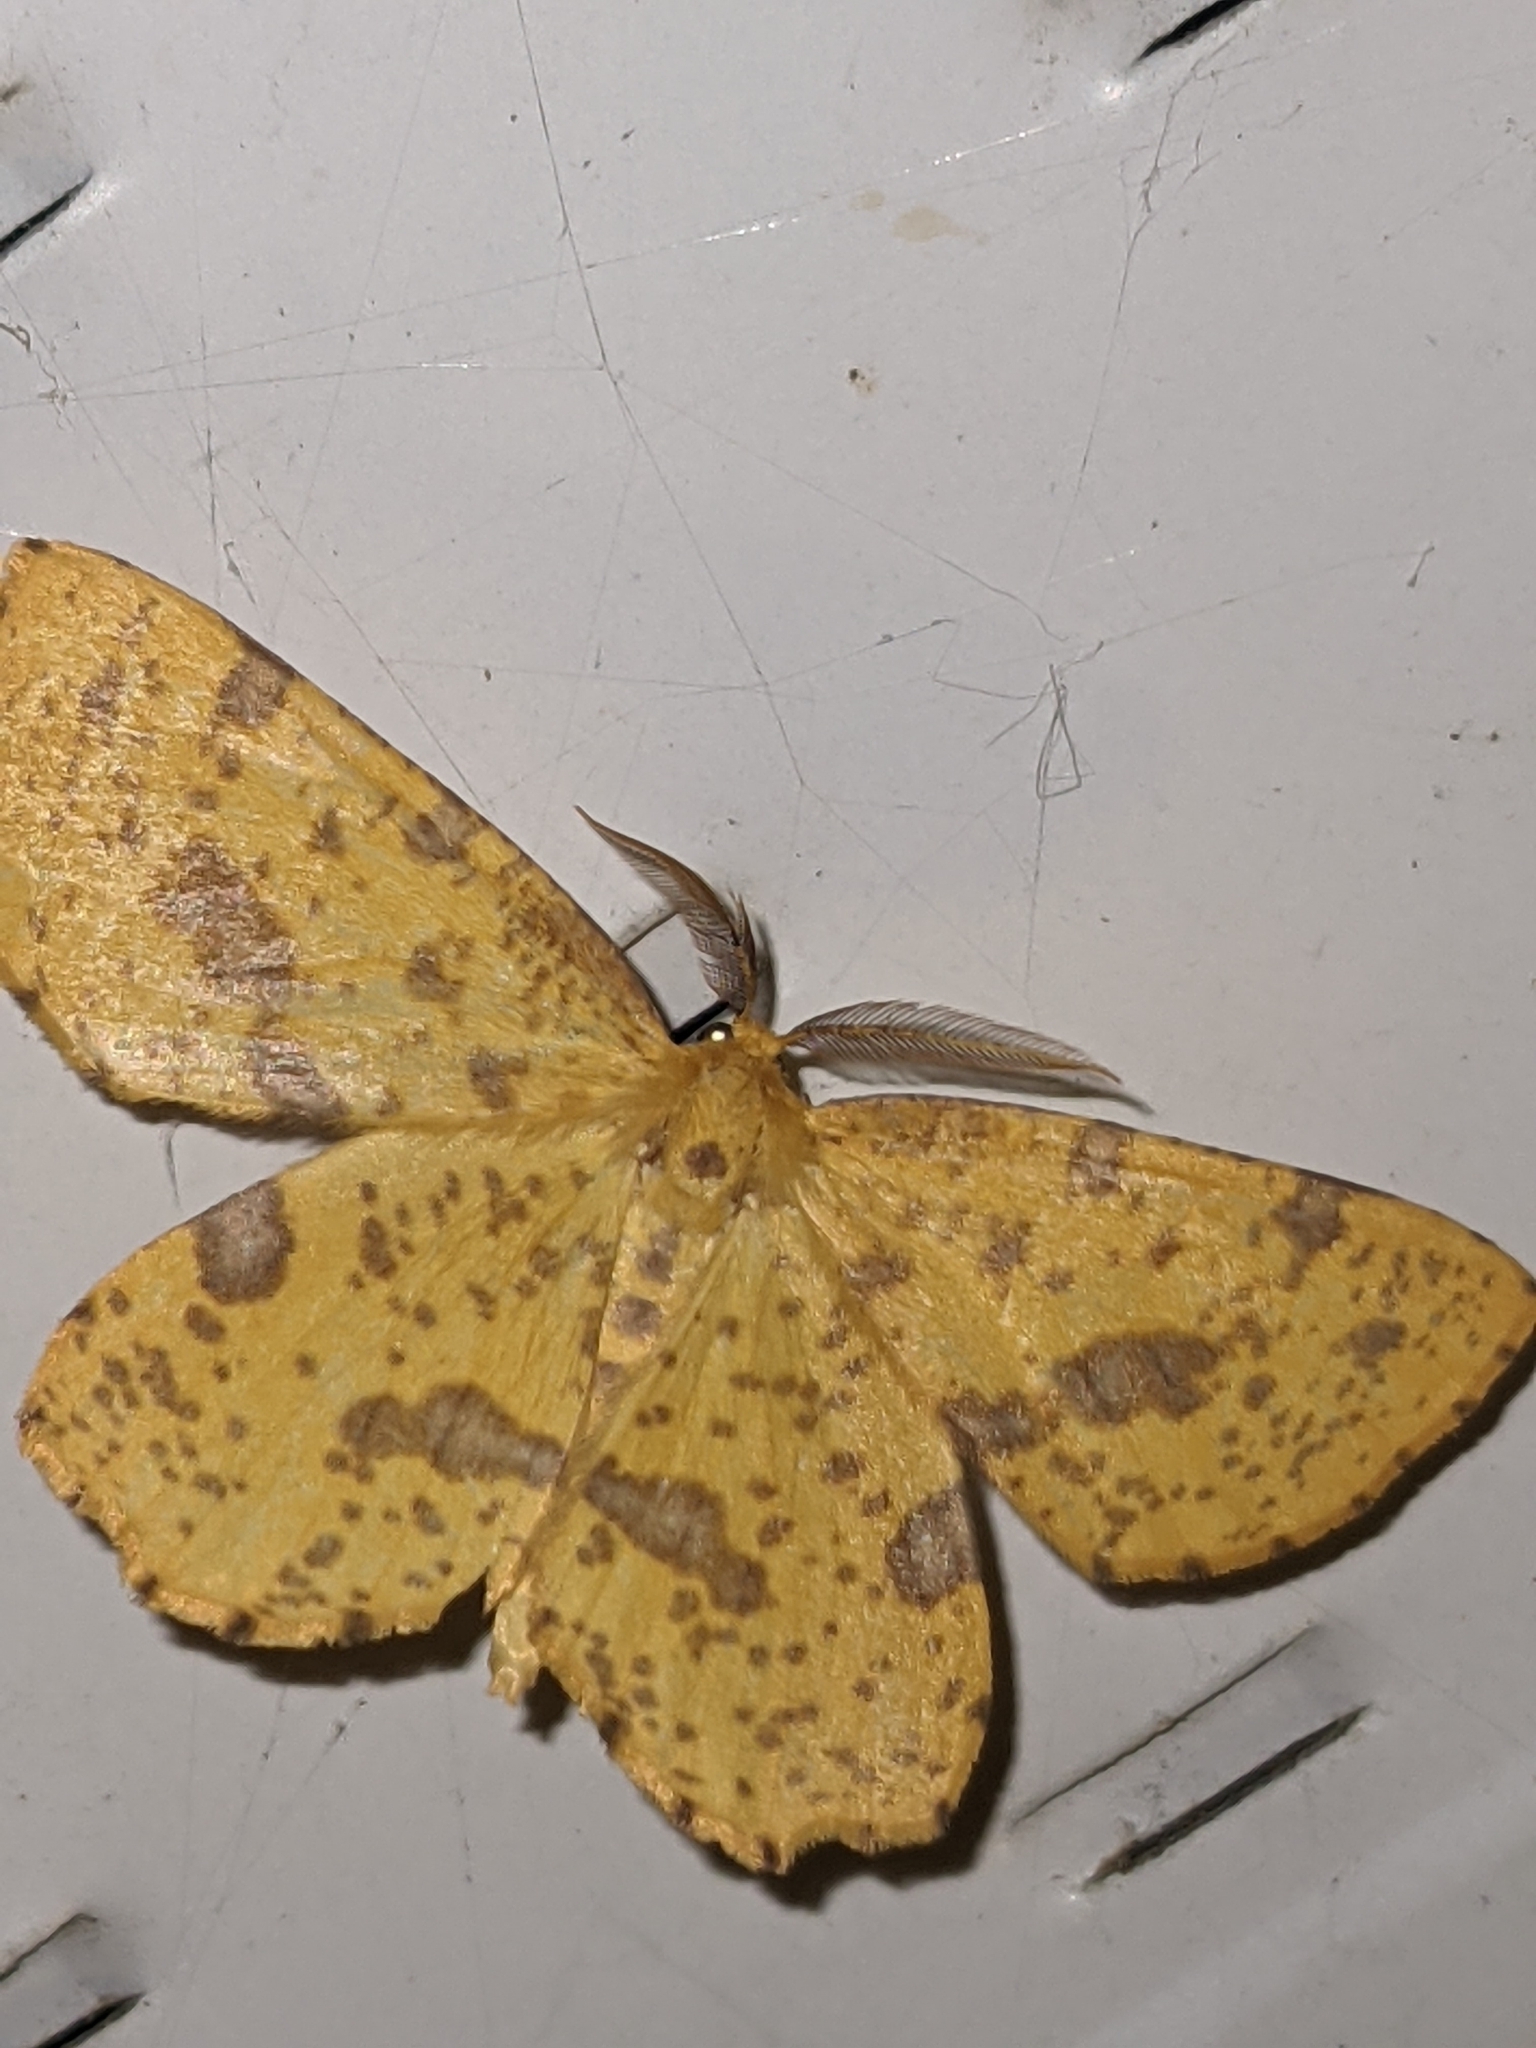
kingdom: Animalia
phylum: Arthropoda
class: Insecta
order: Lepidoptera
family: Geometridae
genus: Xanthotype
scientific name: Xanthotype
